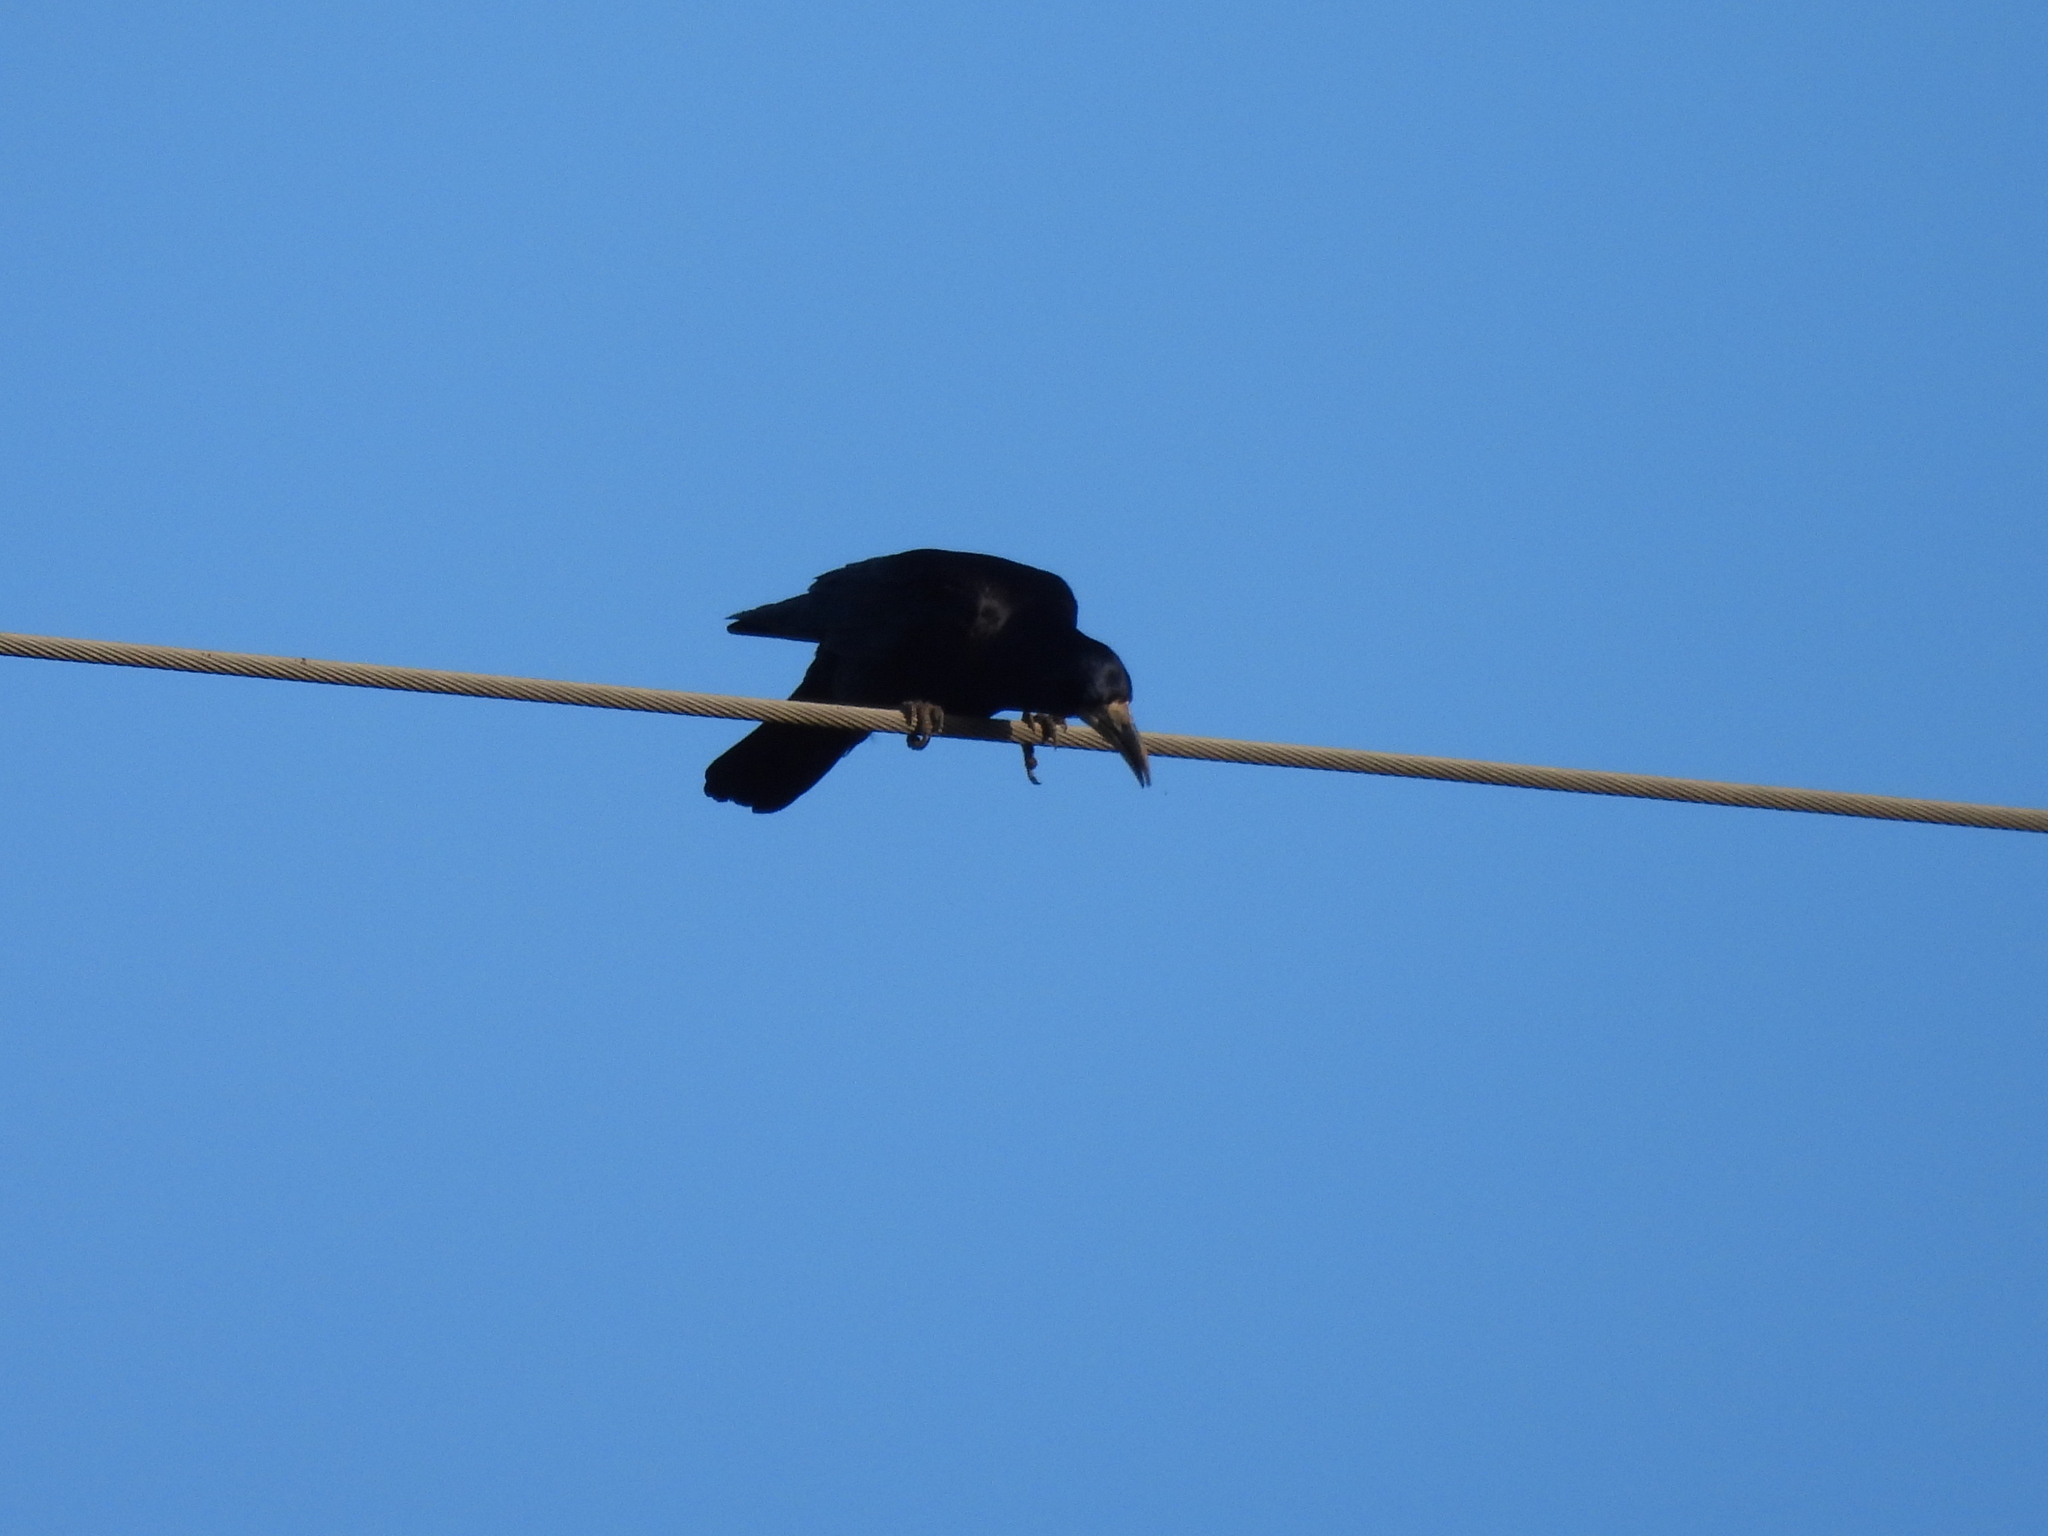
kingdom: Animalia
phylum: Chordata
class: Aves
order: Passeriformes
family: Corvidae
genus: Corvus
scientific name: Corvus frugilegus
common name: Rook
